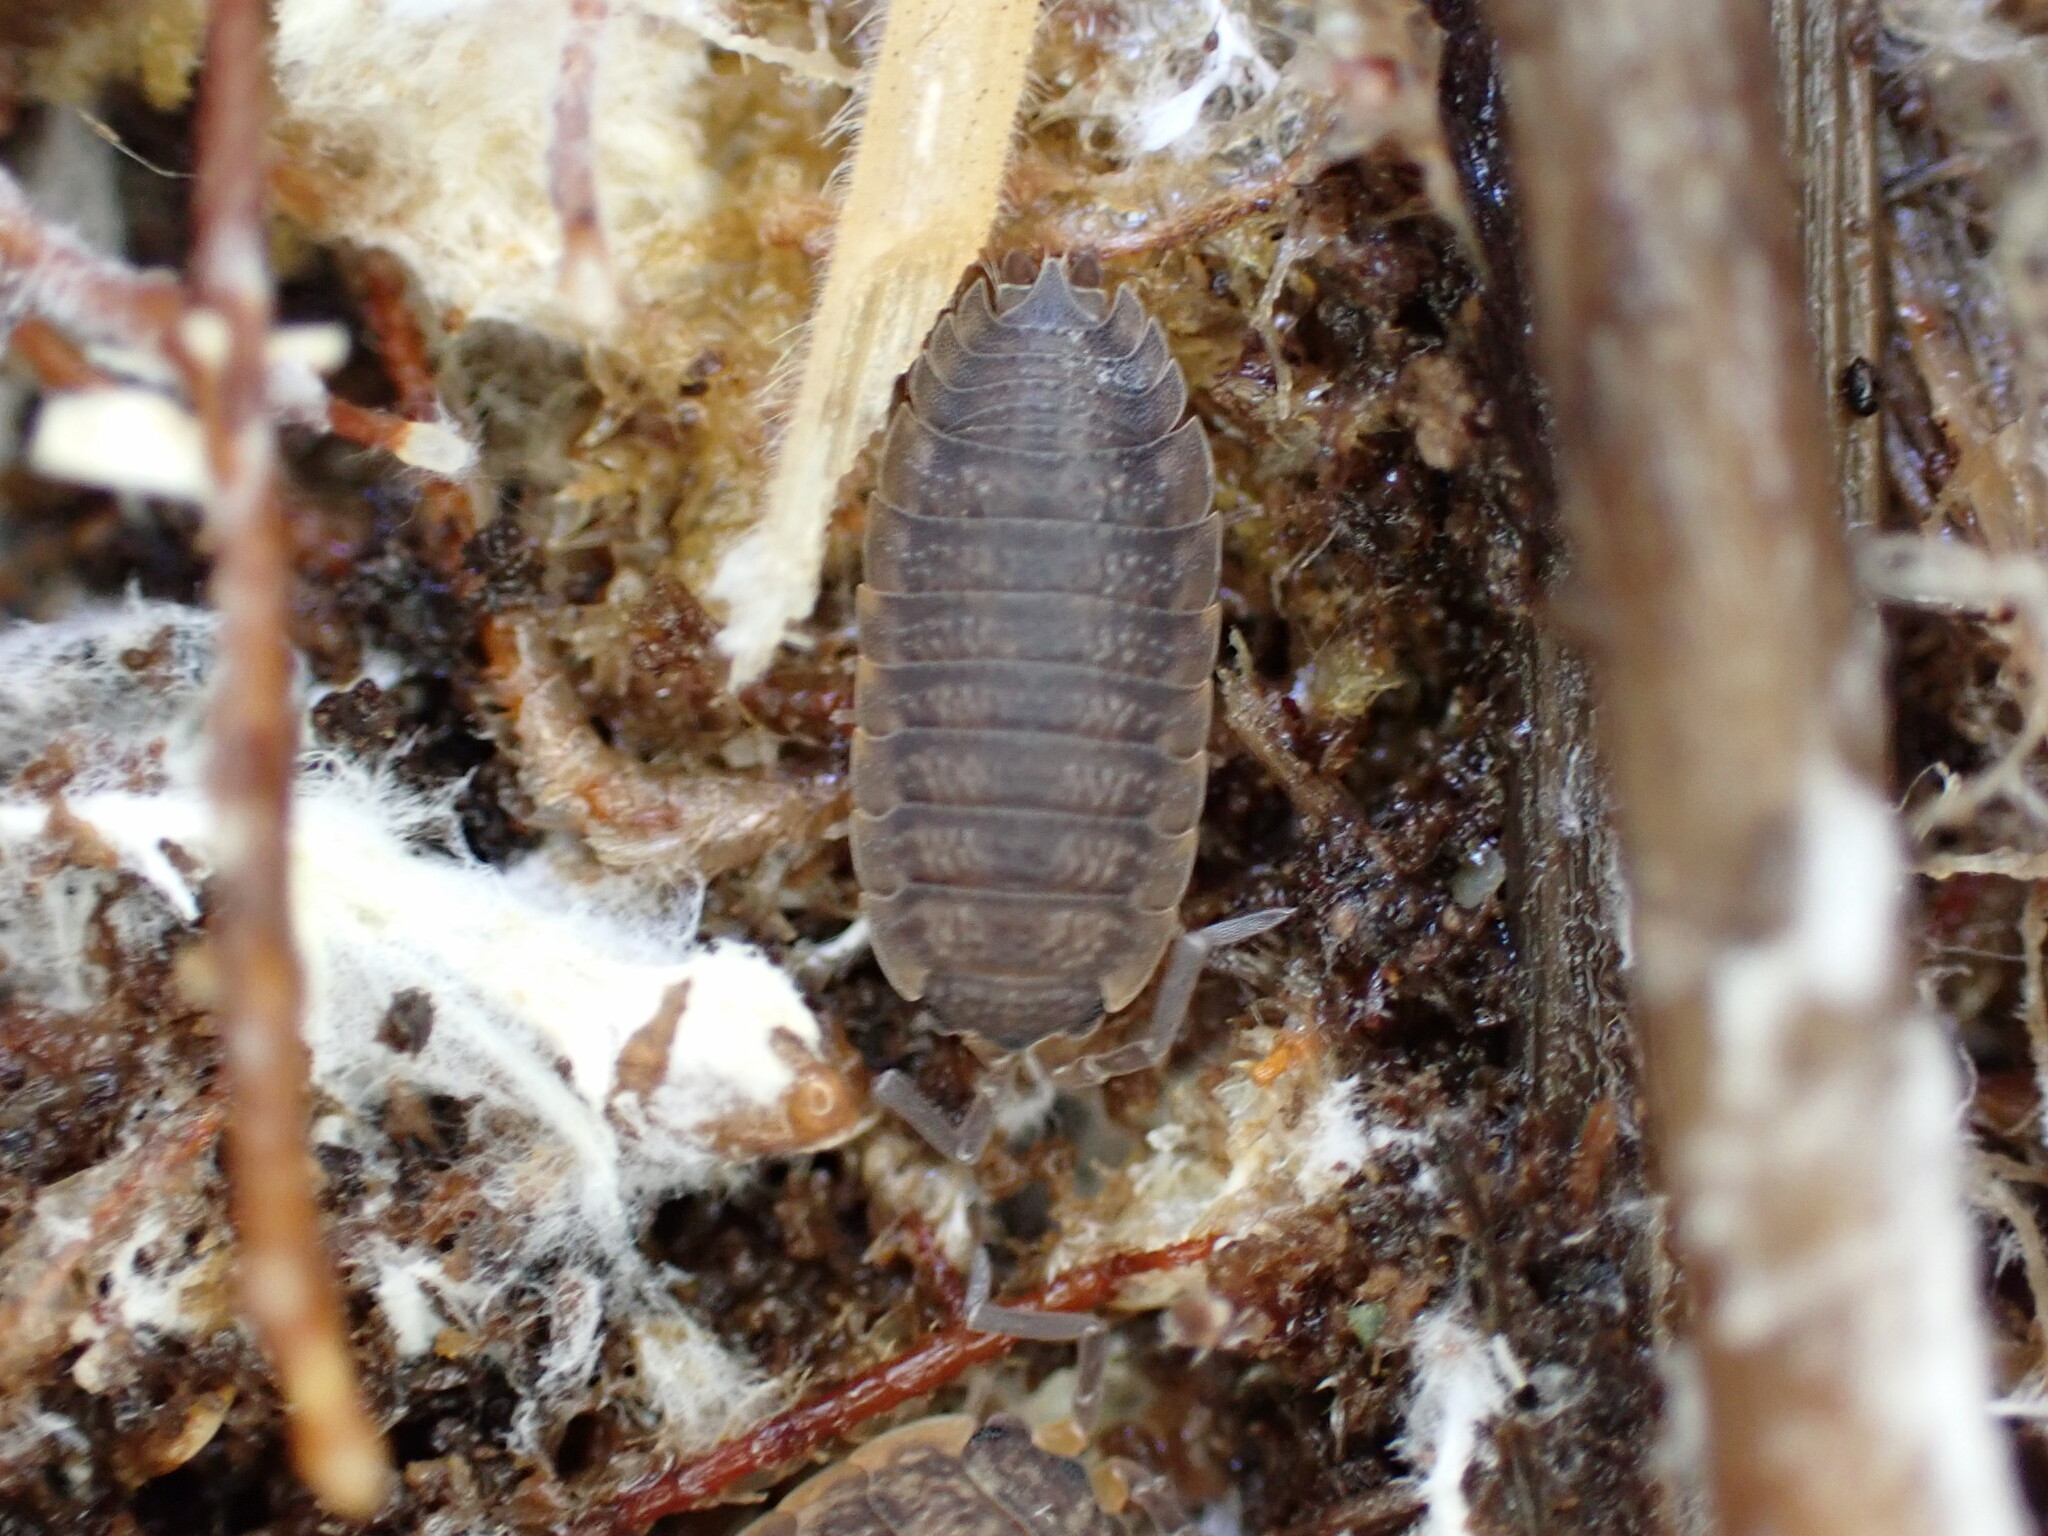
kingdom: Animalia
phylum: Arthropoda
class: Malacostraca
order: Isopoda
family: Porcellionidae
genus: Porcellio
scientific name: Porcellio scaber
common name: Common rough woodlouse
